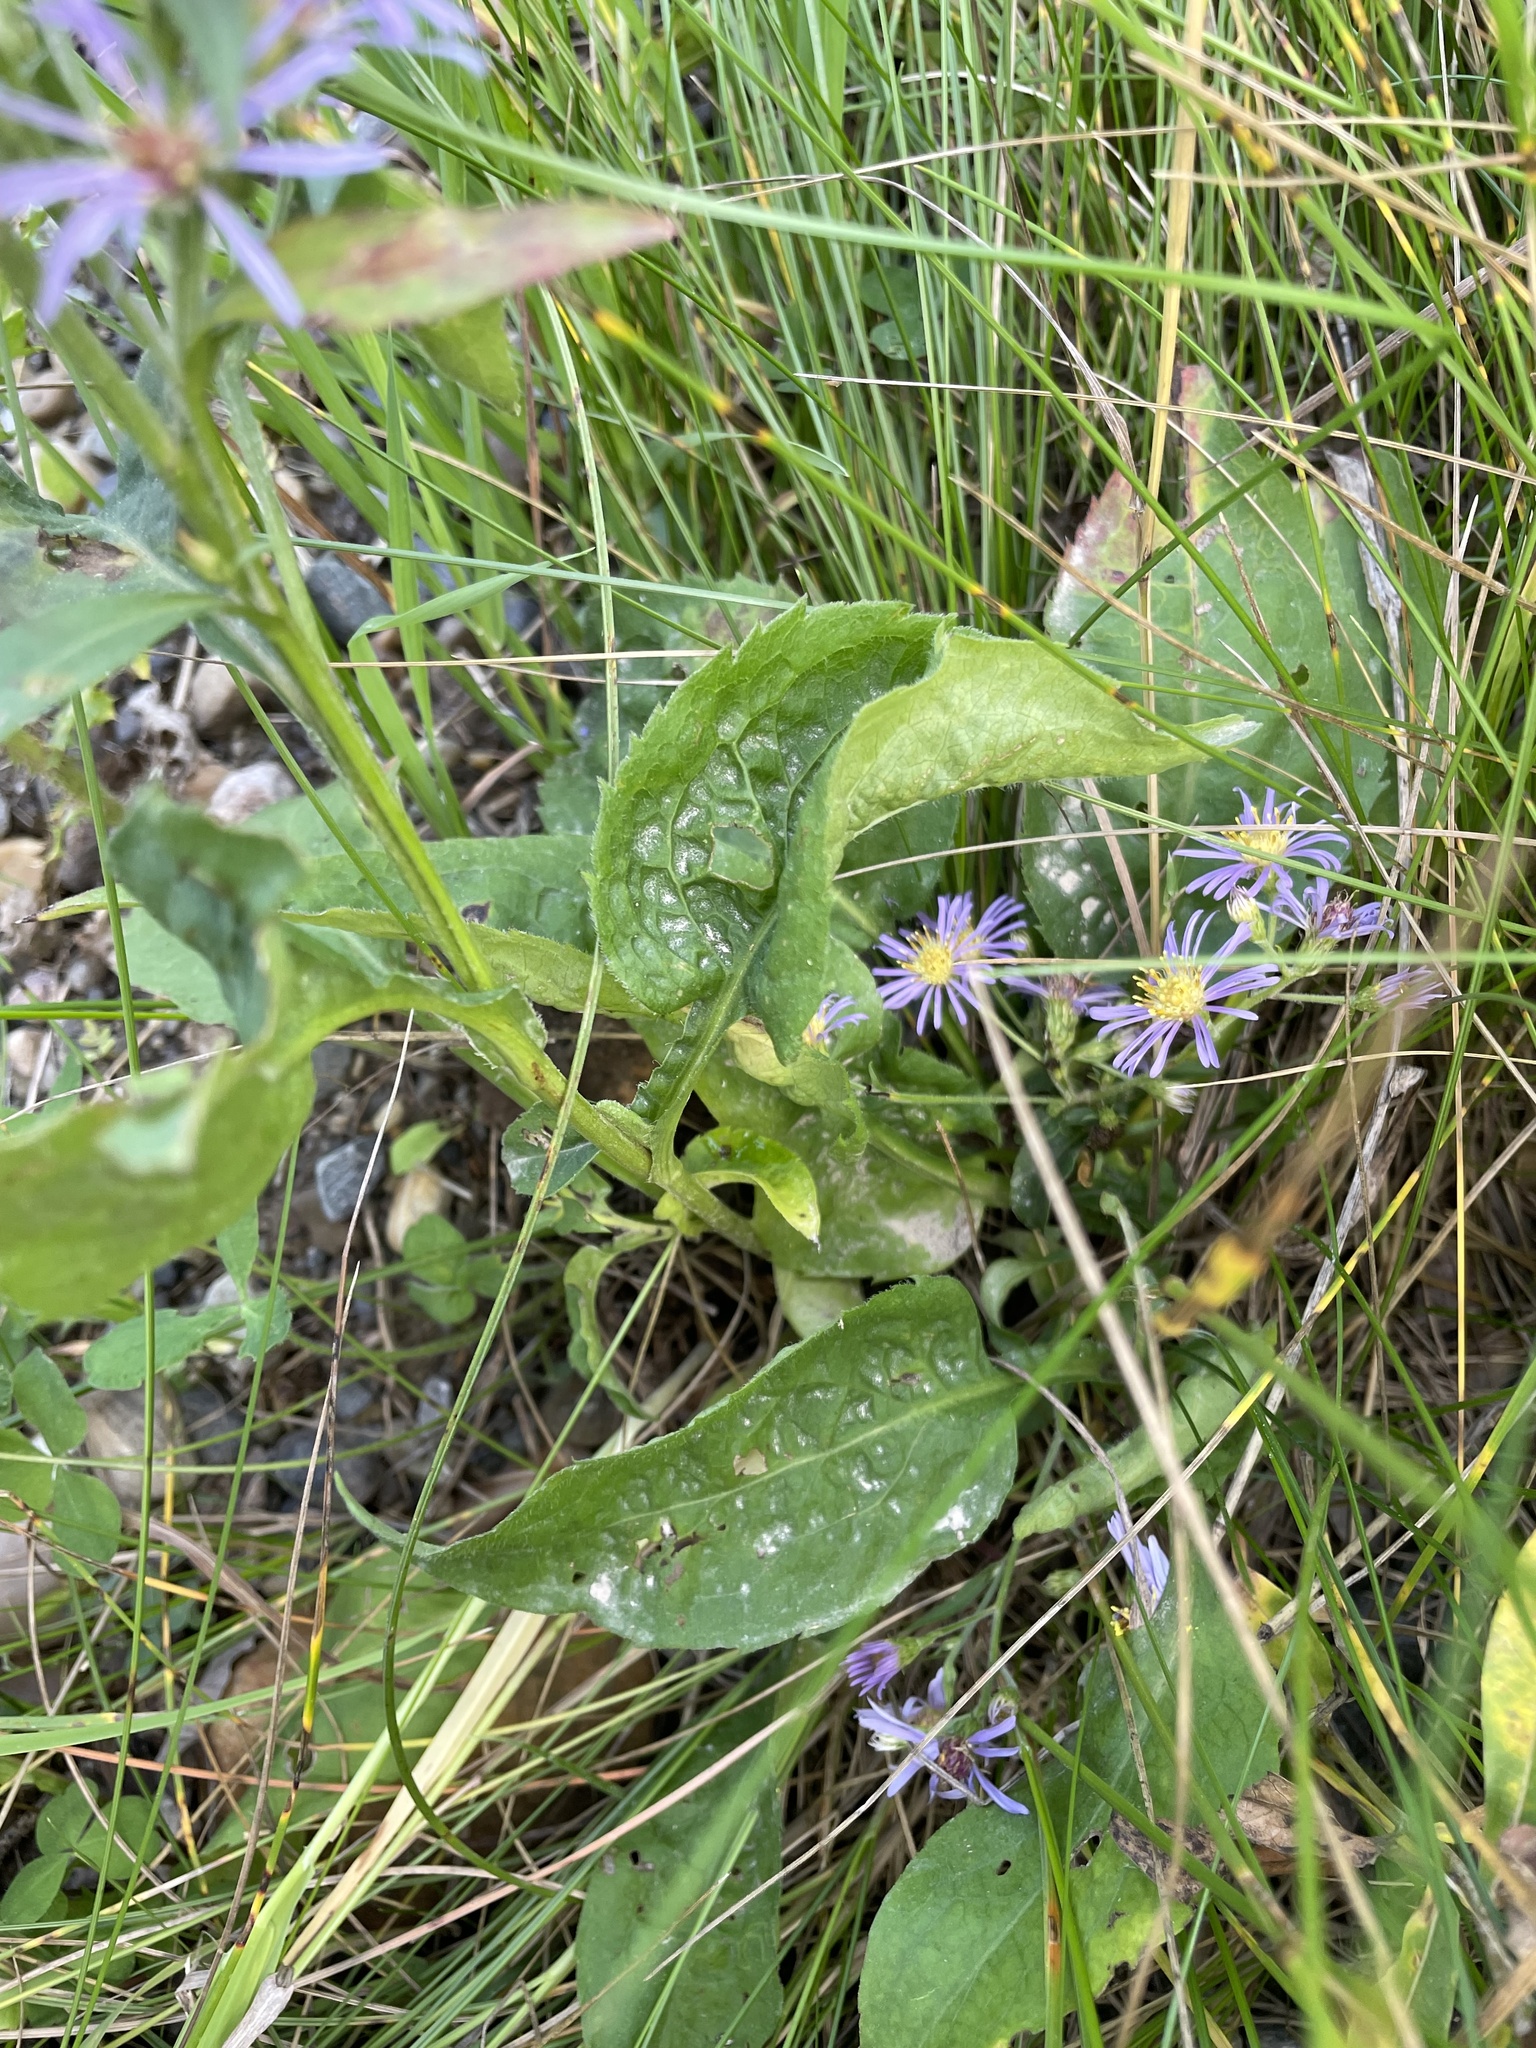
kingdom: Plantae
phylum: Tracheophyta
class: Magnoliopsida
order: Asterales
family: Asteraceae
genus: Symphyotrichum
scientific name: Symphyotrichum ciliolatum
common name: Fringed blue aster
